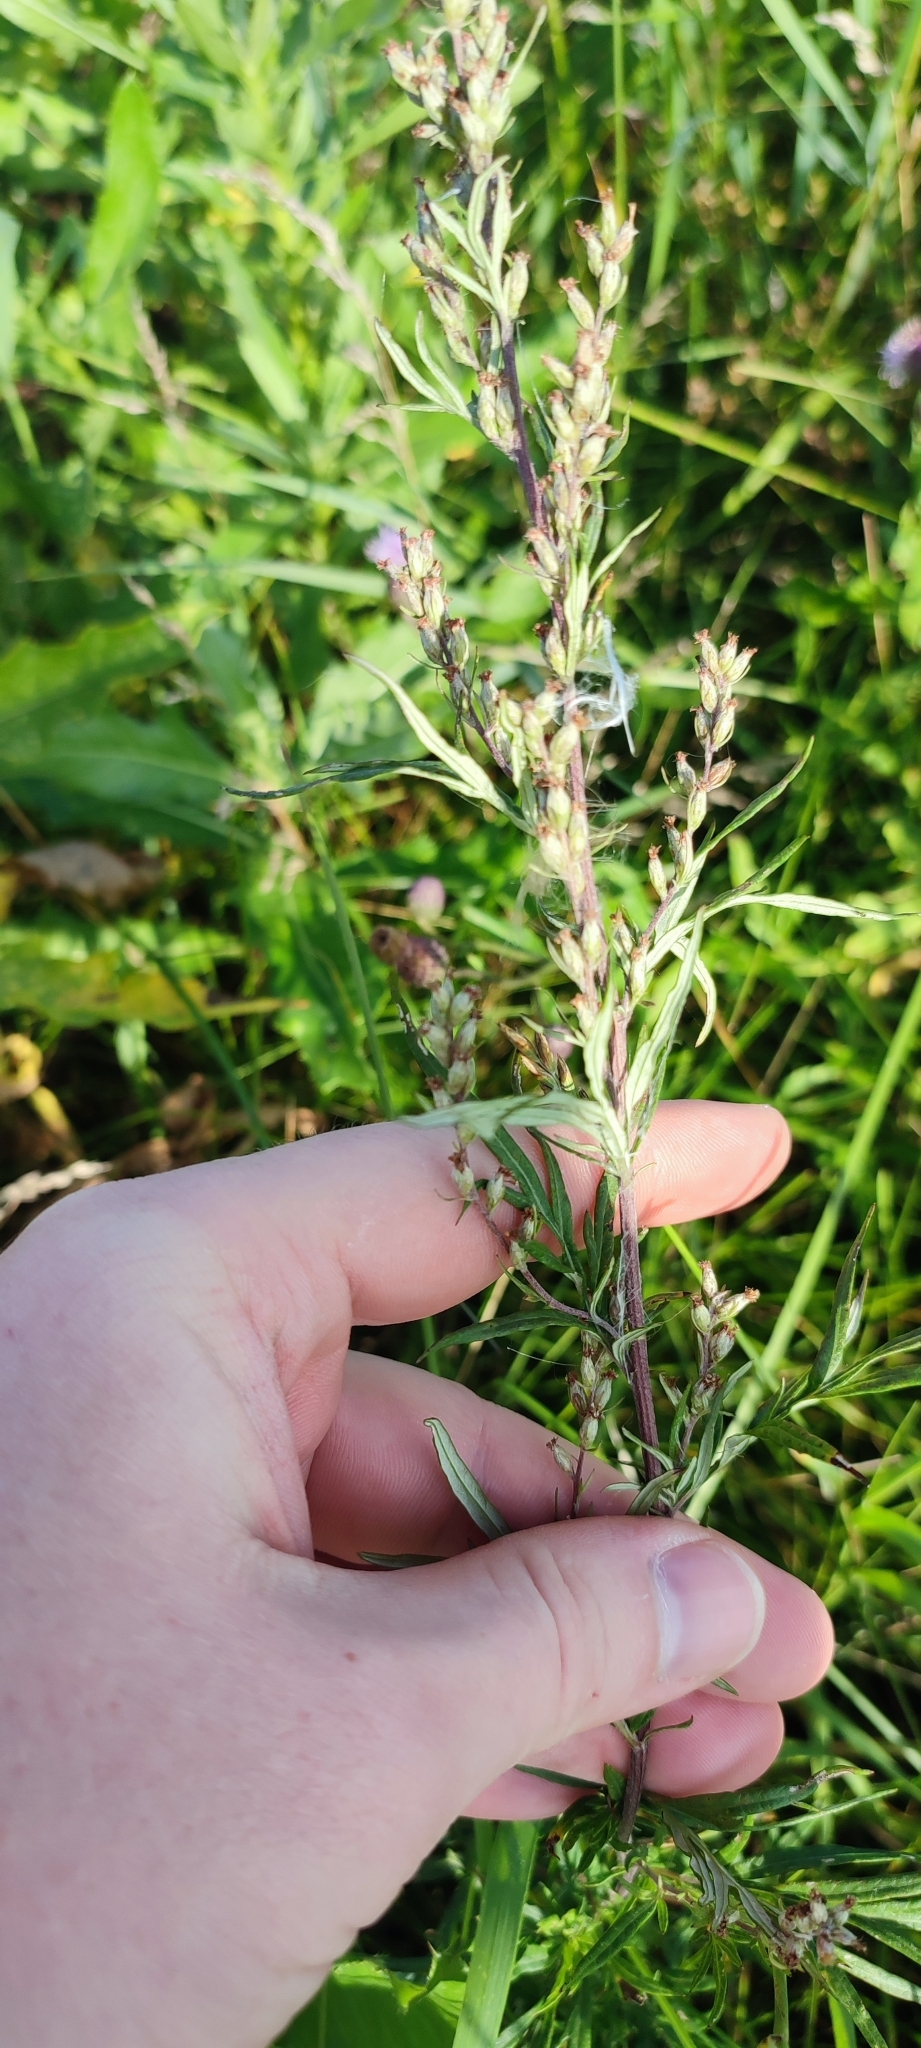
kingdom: Plantae
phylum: Tracheophyta
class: Magnoliopsida
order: Asterales
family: Asteraceae
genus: Artemisia
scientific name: Artemisia vulgaris
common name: Mugwort
